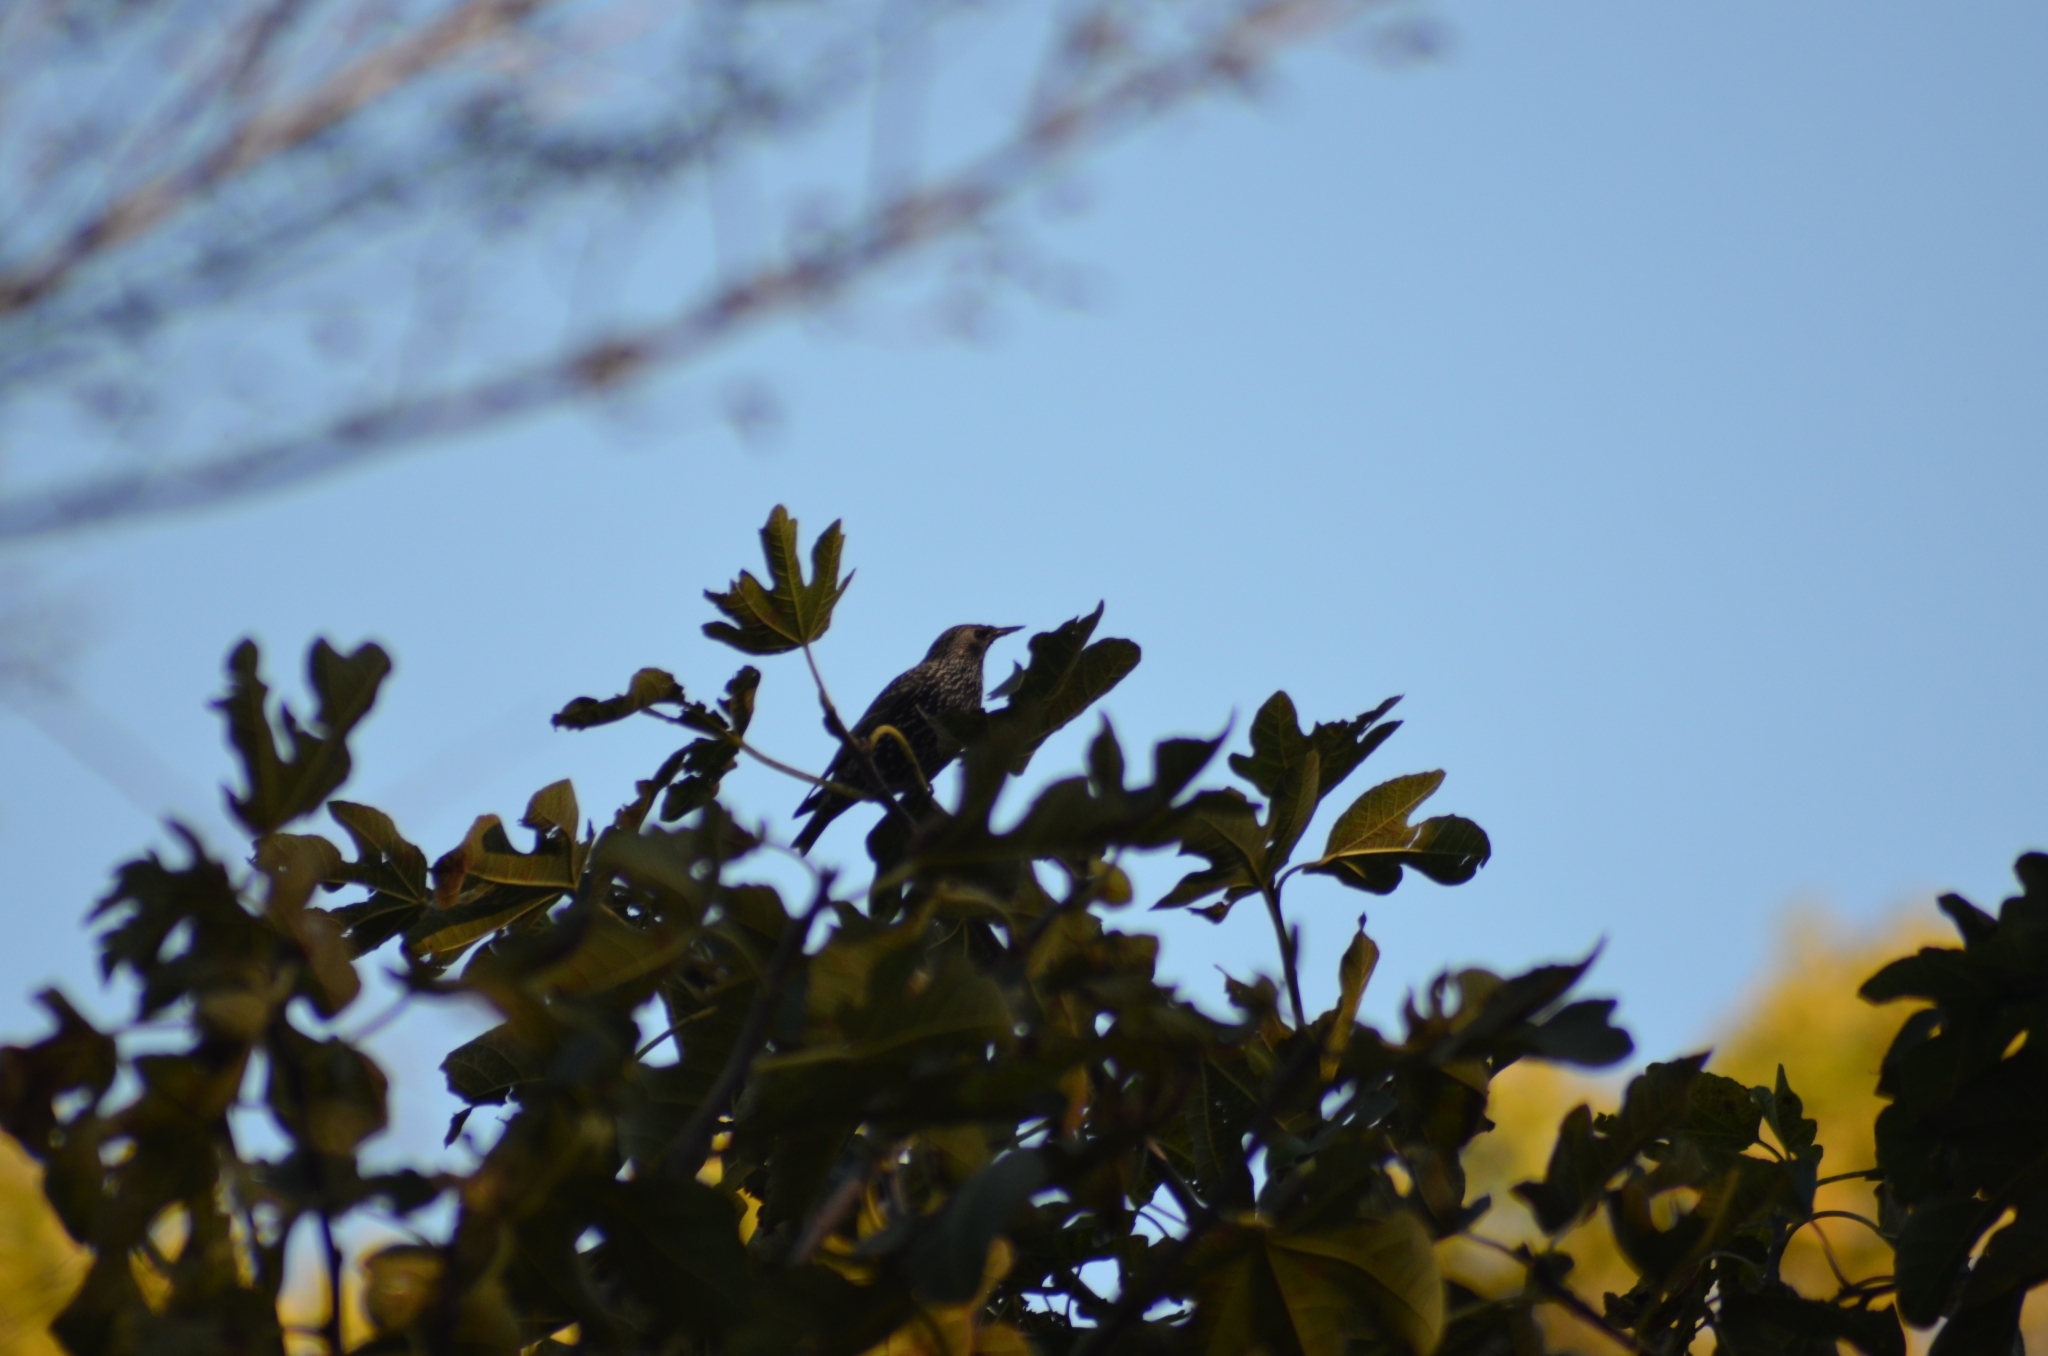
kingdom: Animalia
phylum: Chordata
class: Aves
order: Passeriformes
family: Sturnidae
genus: Sturnus
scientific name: Sturnus vulgaris
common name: Common starling
